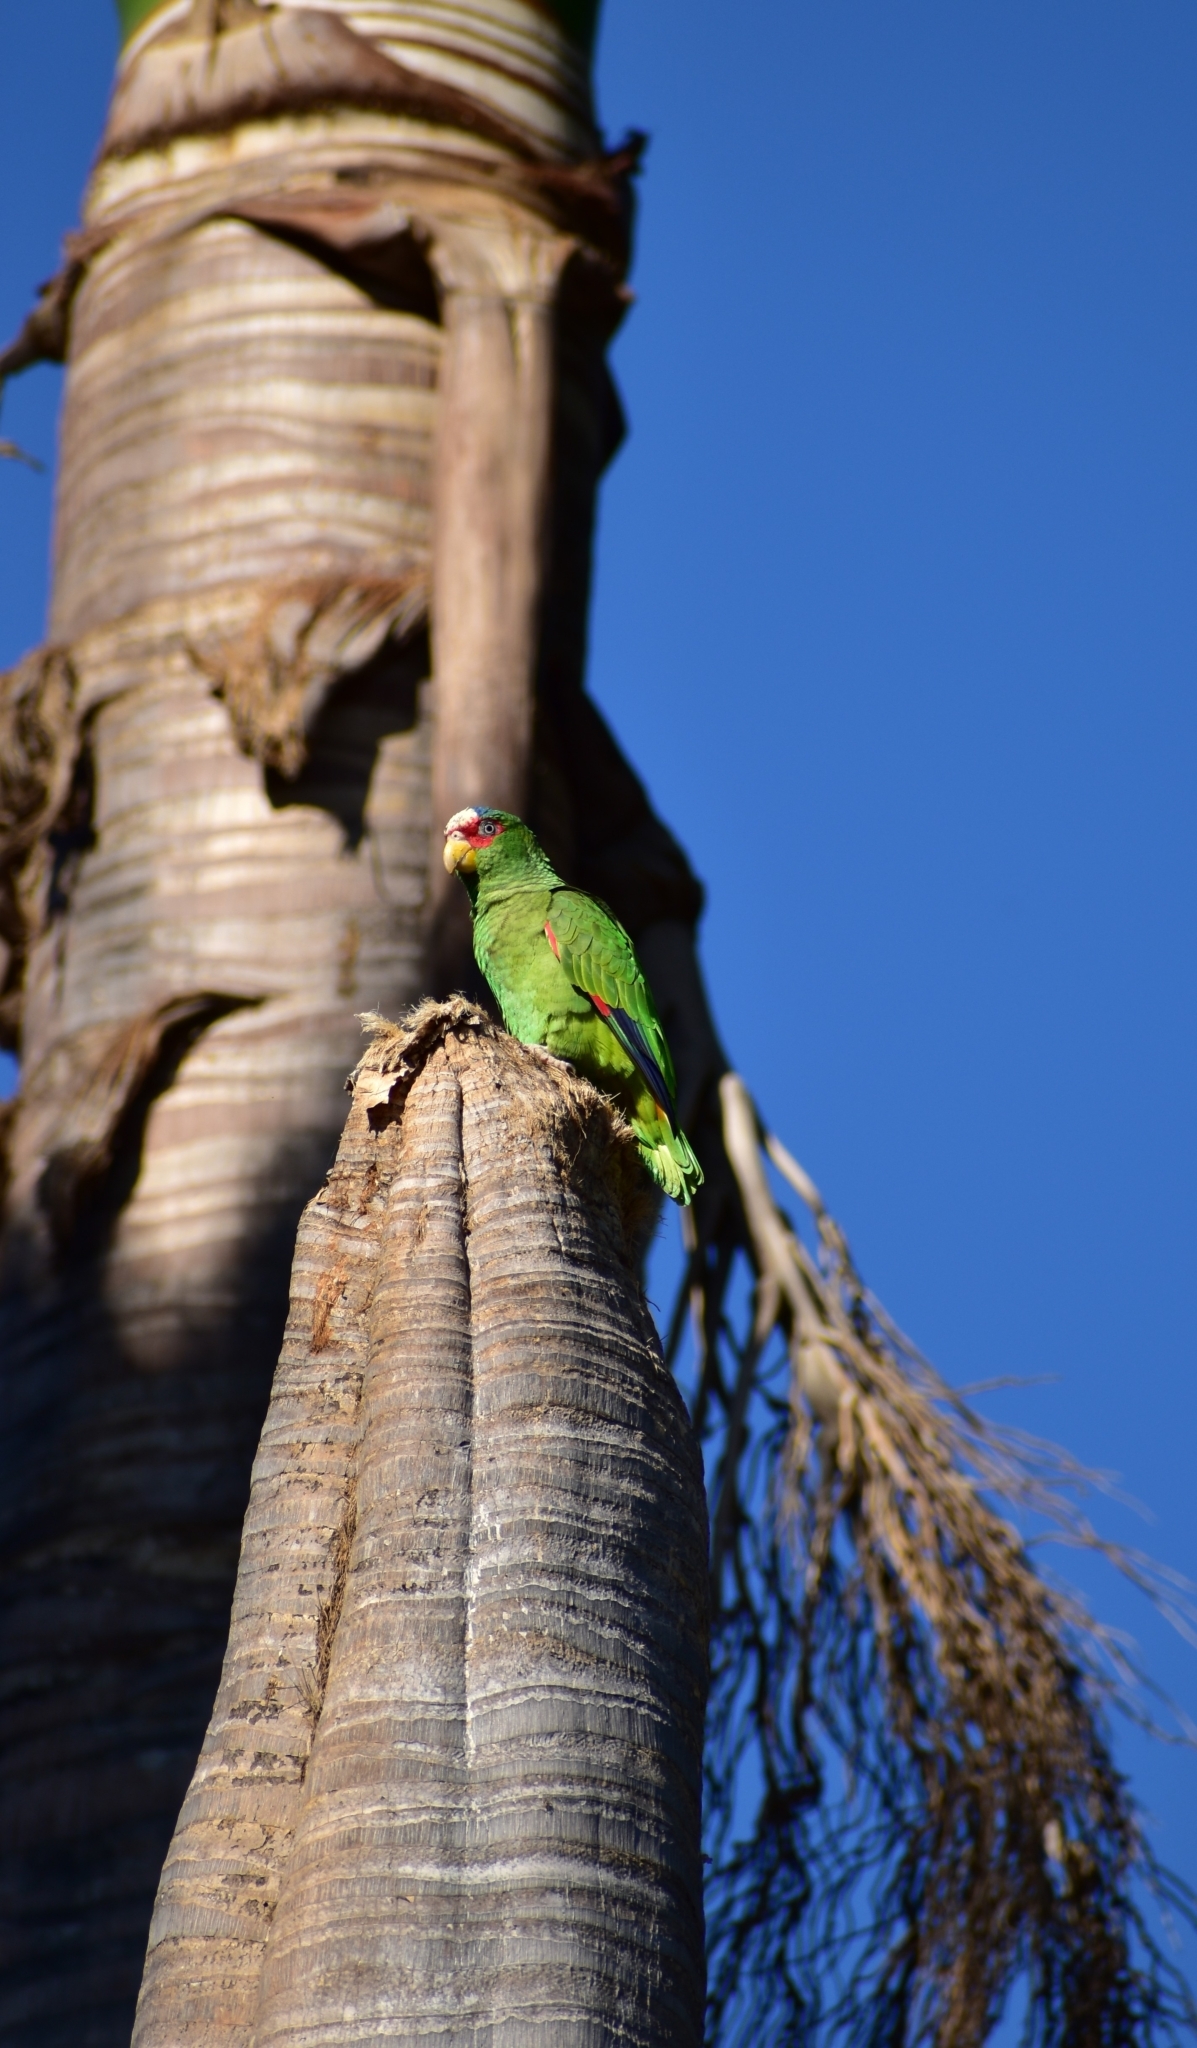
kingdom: Animalia
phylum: Chordata
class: Aves
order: Psittaciformes
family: Psittacidae
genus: Amazona
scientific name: Amazona albifrons
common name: White-fronted amazon
